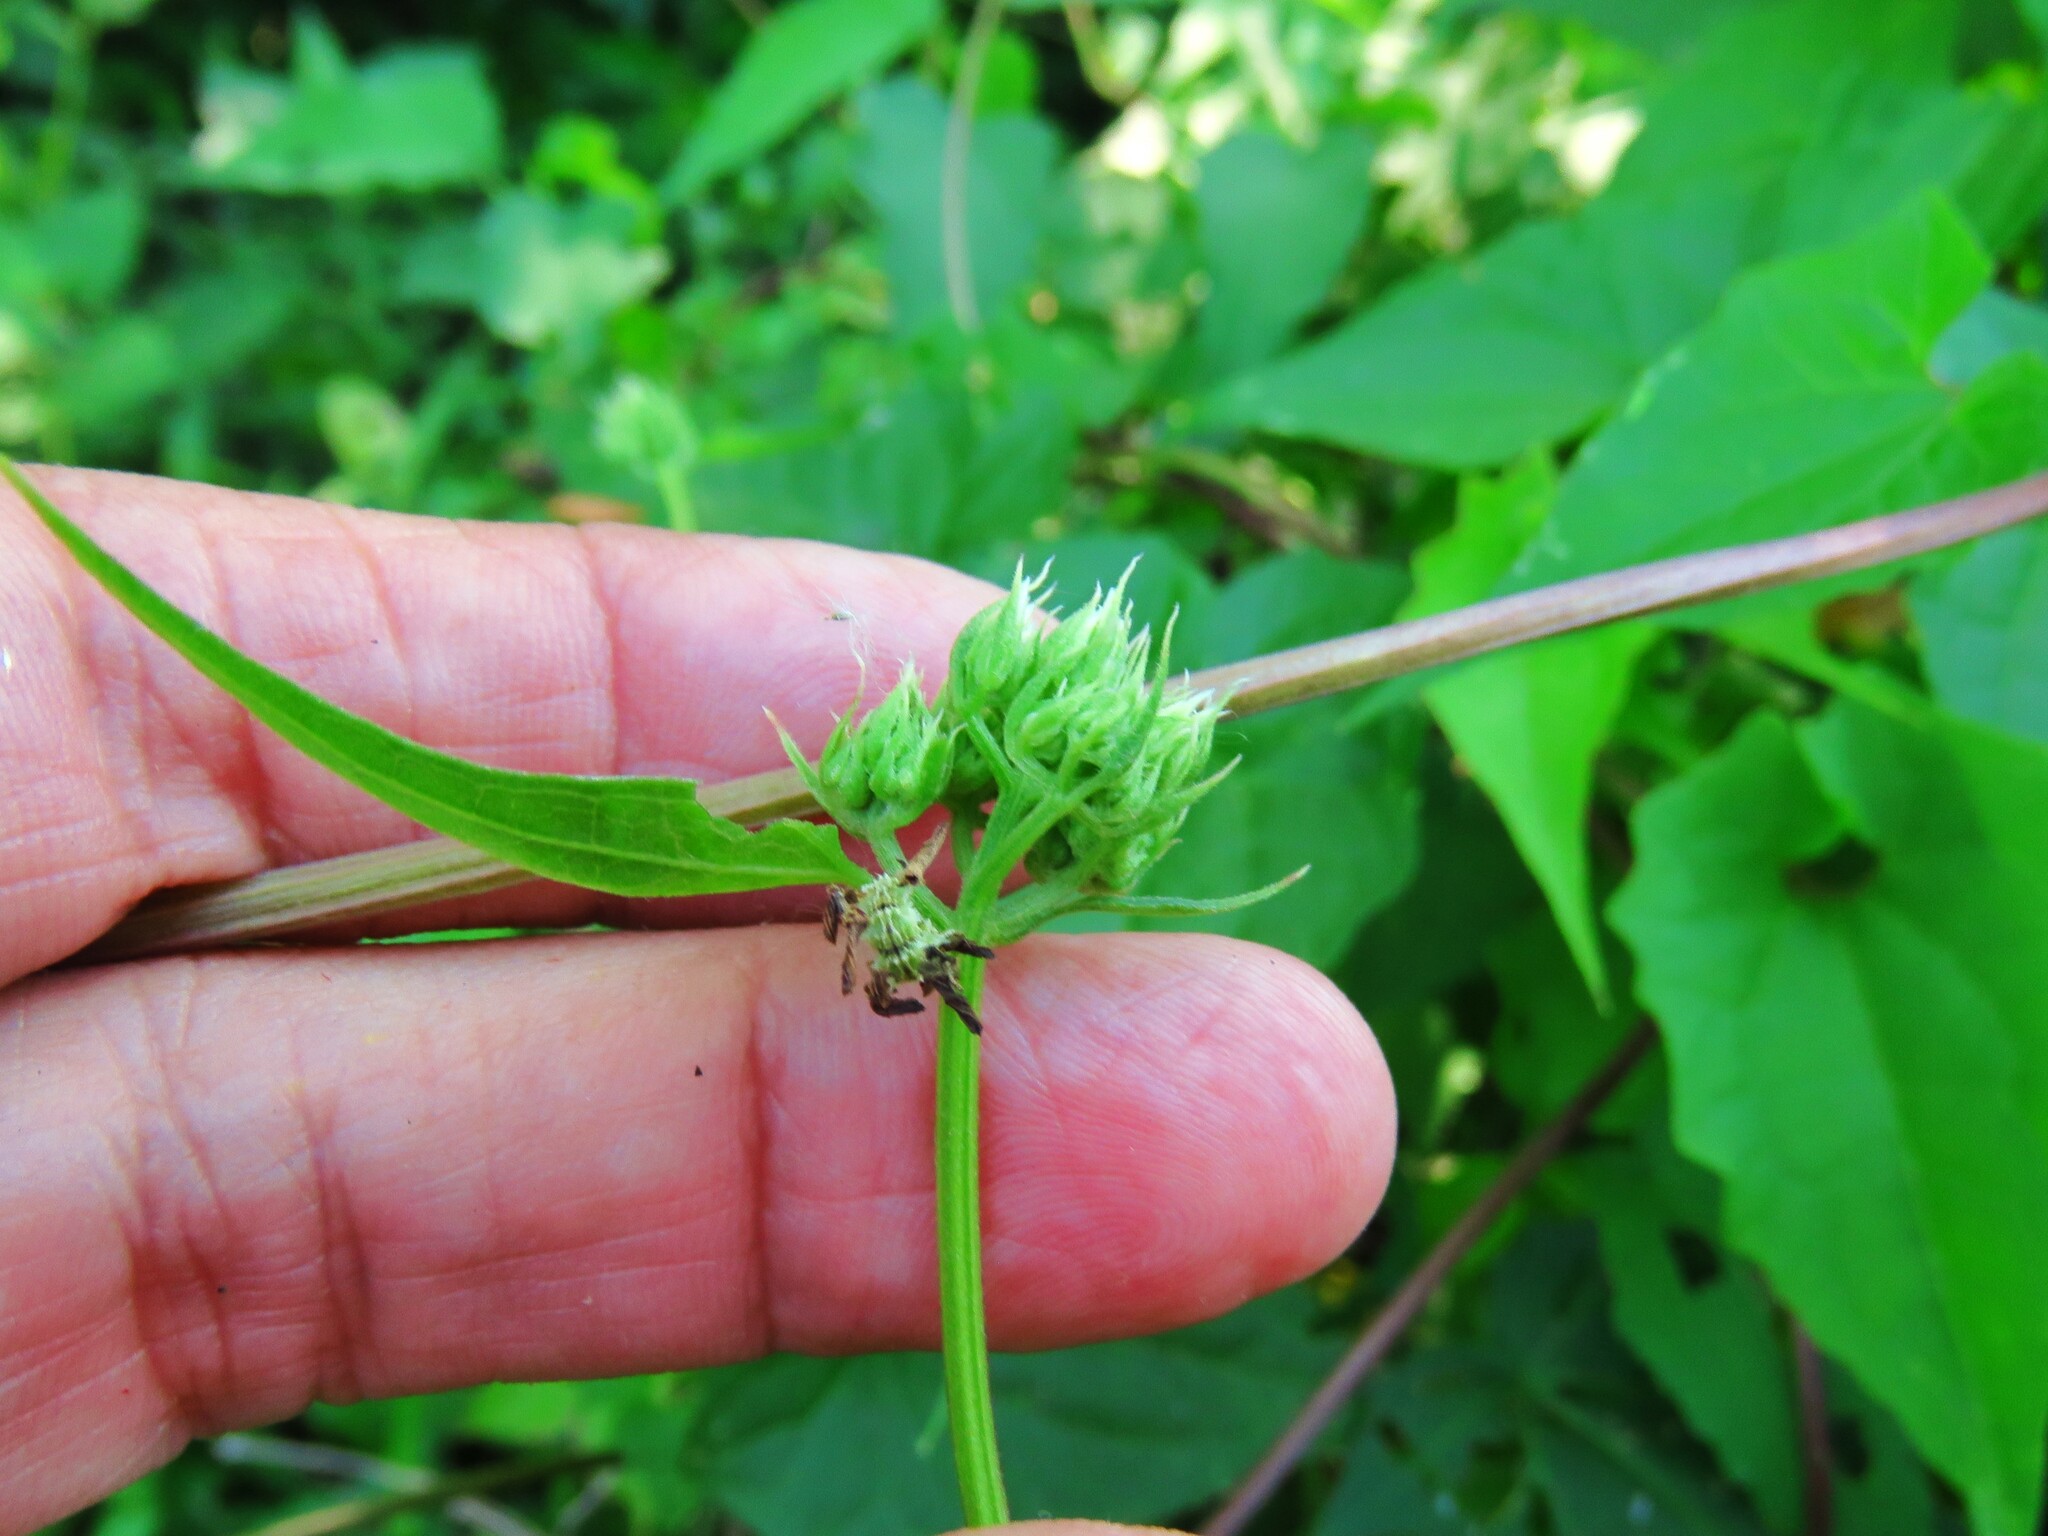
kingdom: Plantae
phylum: Tracheophyta
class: Magnoliopsida
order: Asterales
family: Asteraceae
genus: Mikania
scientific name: Mikania scandens
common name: Climbing hempvine
